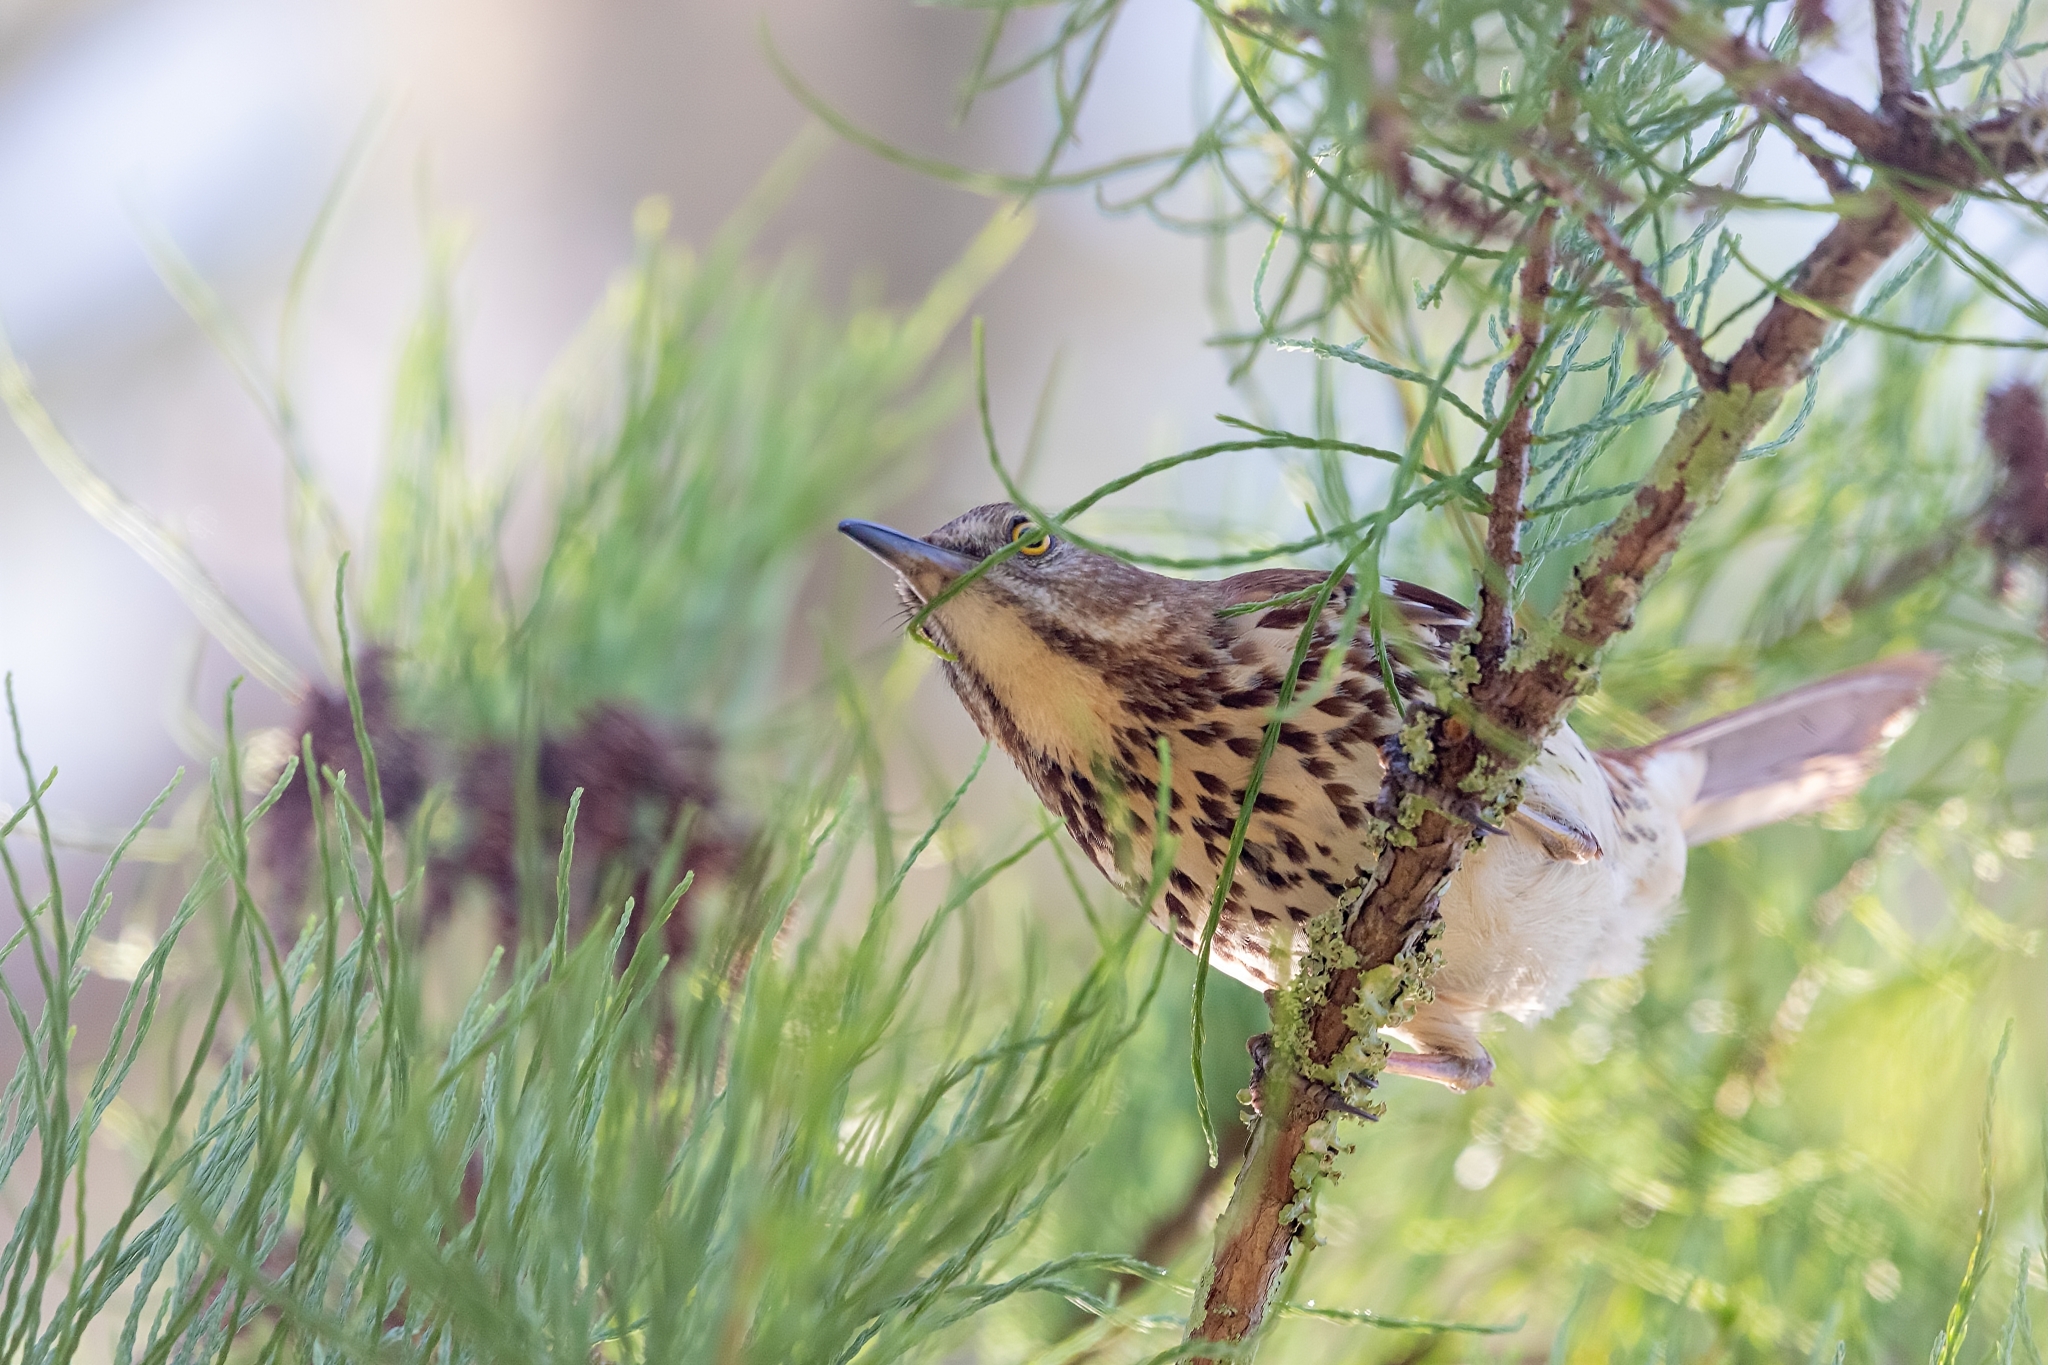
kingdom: Animalia
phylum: Chordata
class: Aves
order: Passeriformes
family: Mimidae
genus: Toxostoma
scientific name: Toxostoma rufum
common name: Brown thrasher
